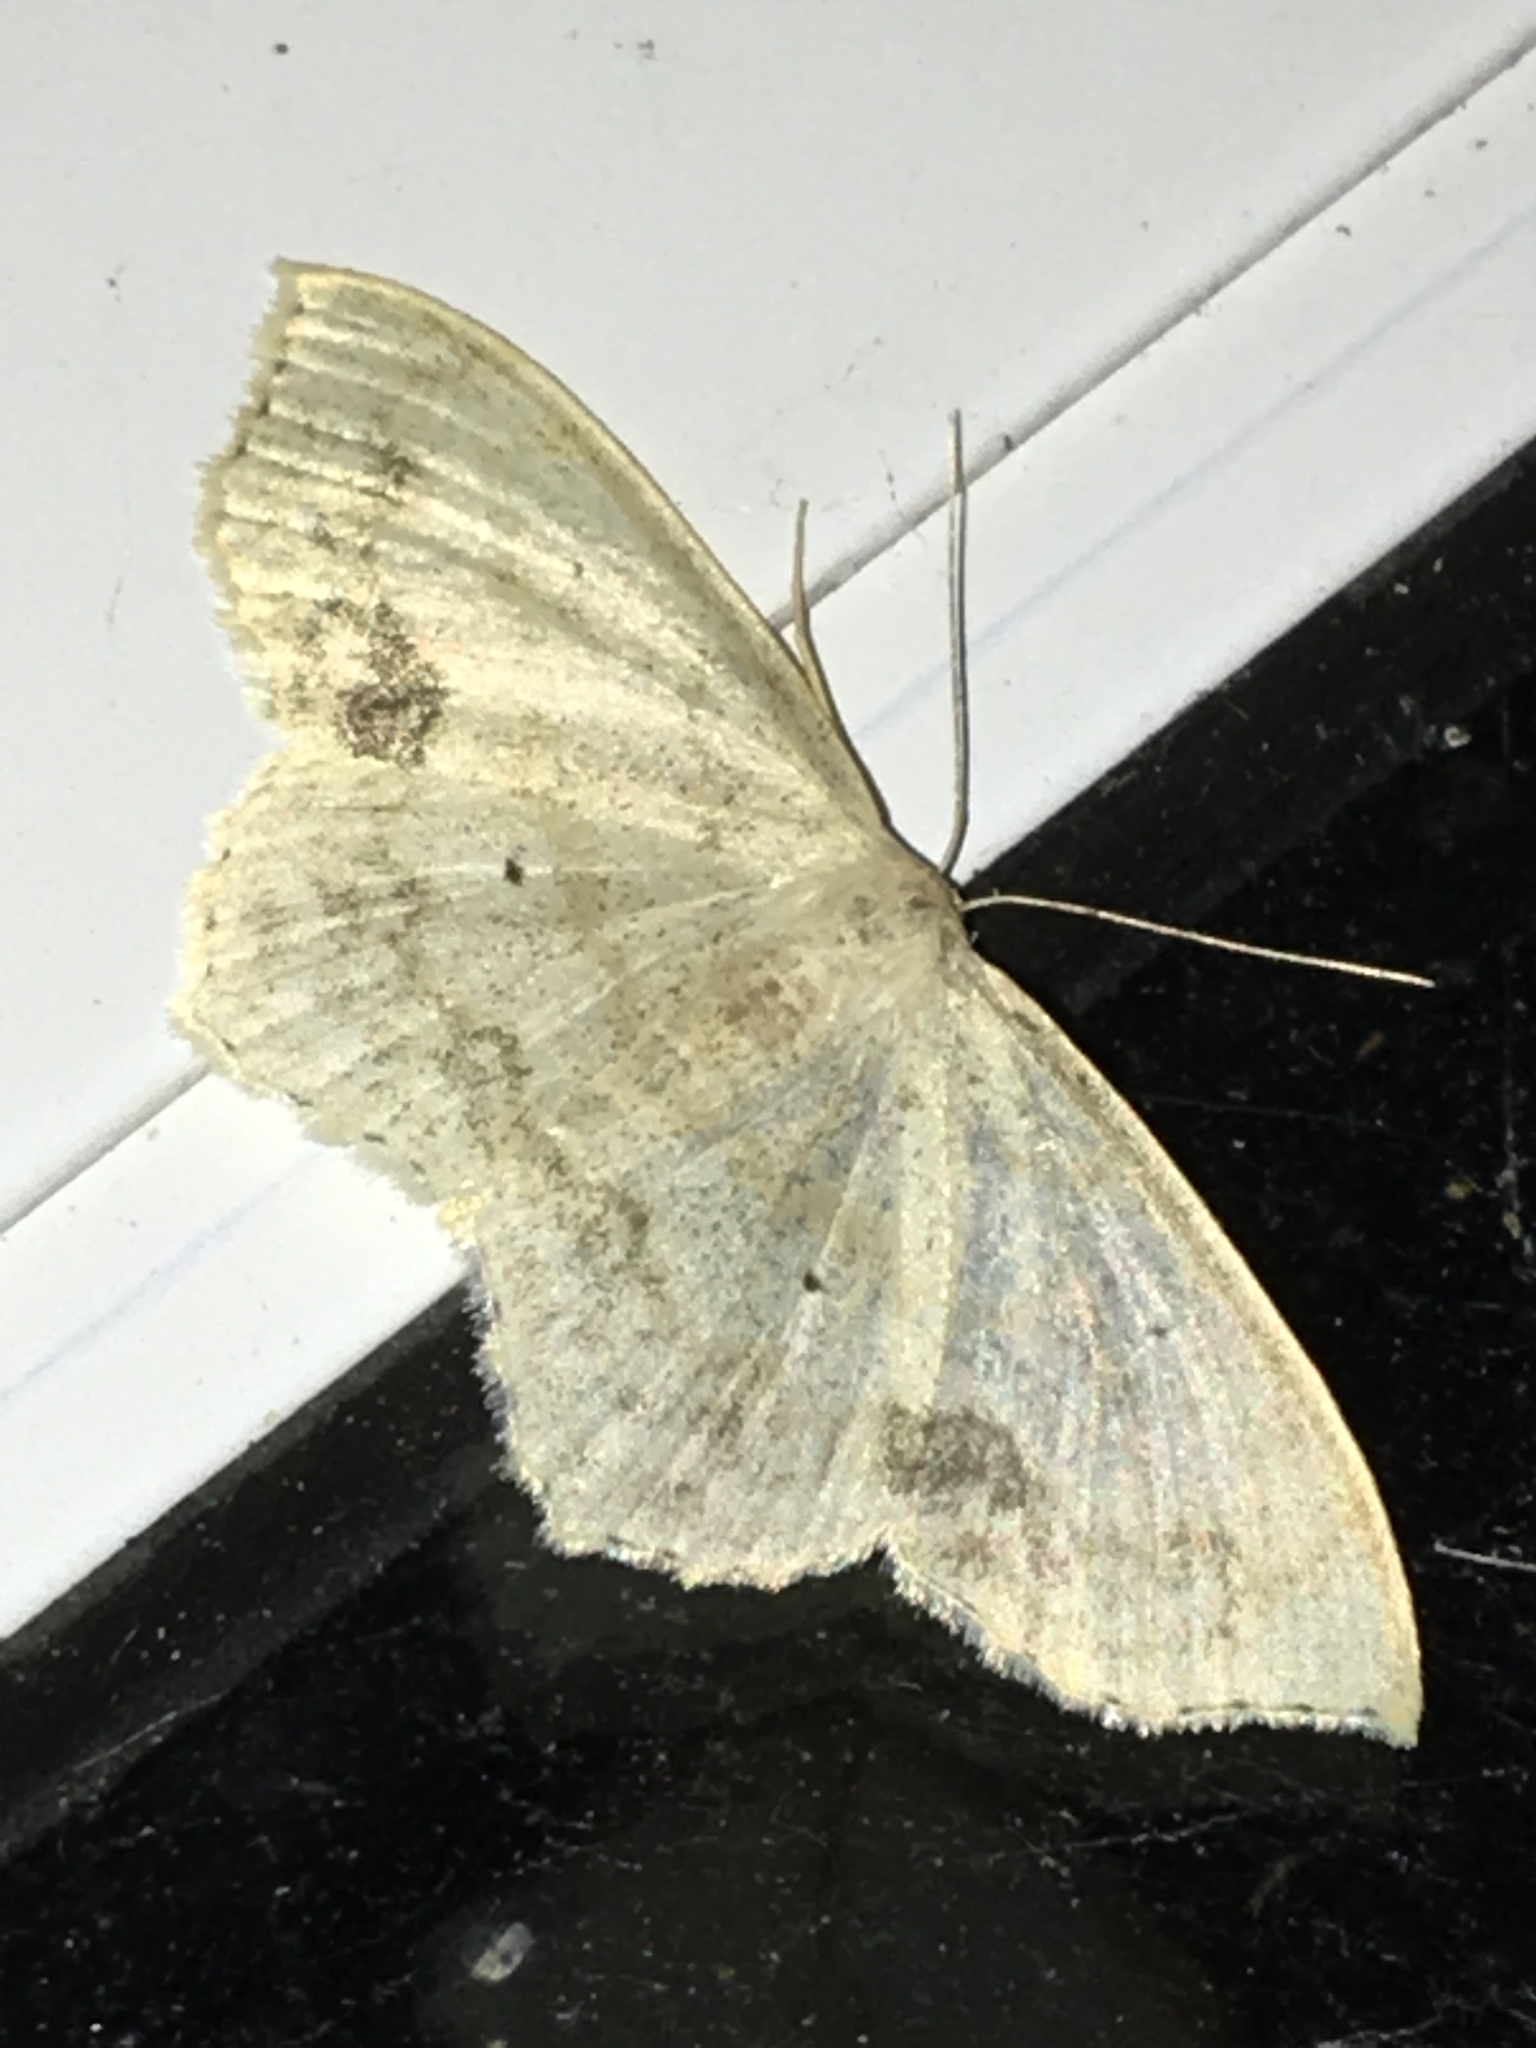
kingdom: Animalia
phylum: Arthropoda
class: Insecta
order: Lepidoptera
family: Geometridae
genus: Scopula
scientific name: Scopula limboundata
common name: Large lace border
